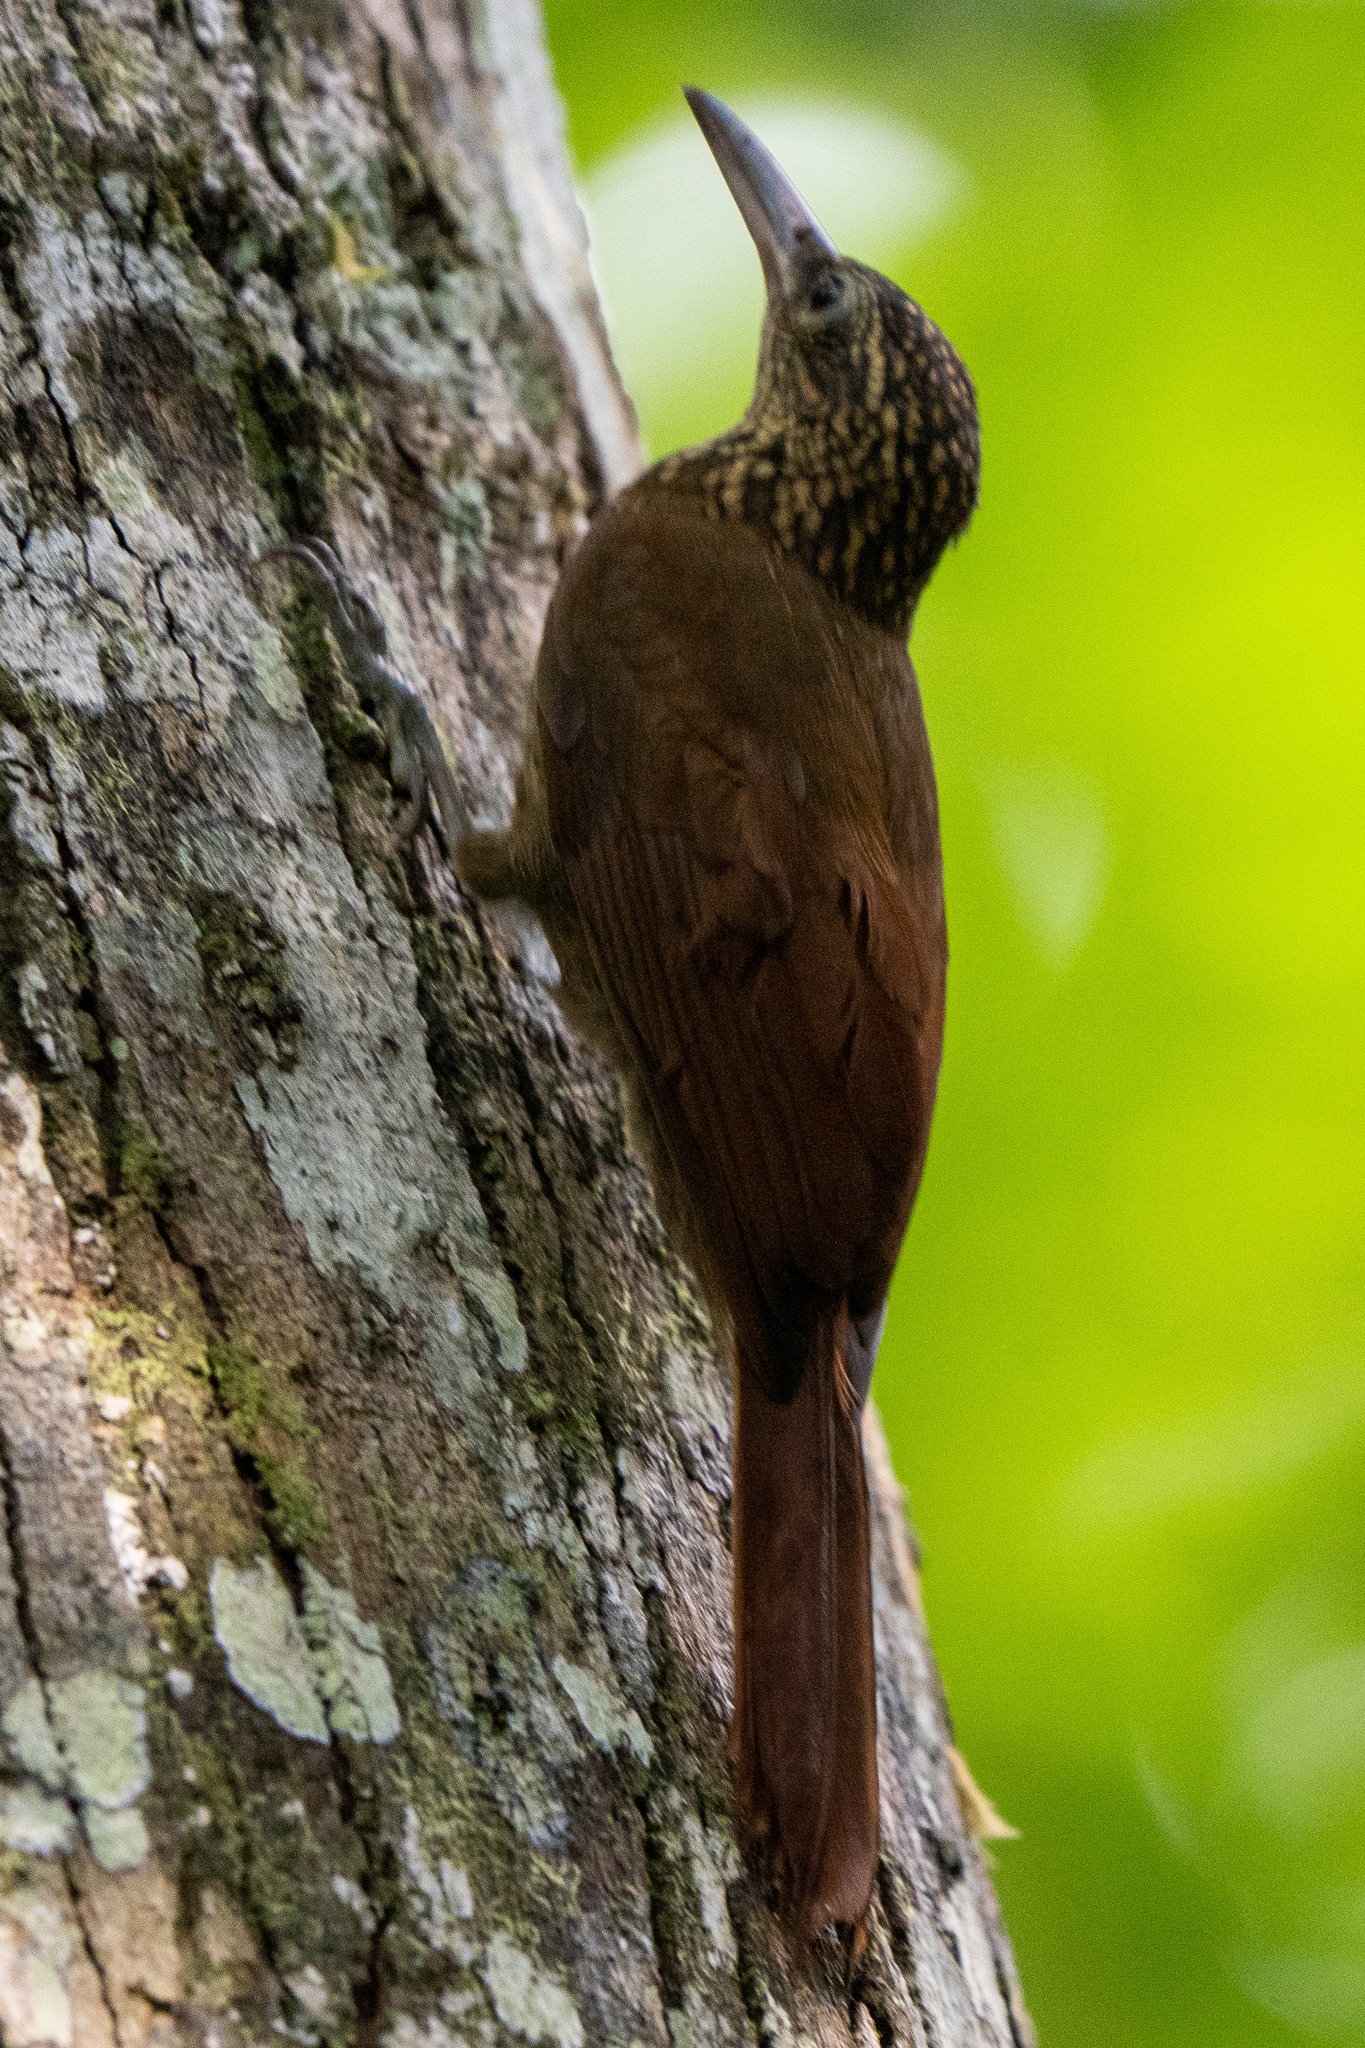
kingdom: Animalia
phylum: Chordata
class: Aves
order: Passeriformes
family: Furnariidae
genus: Xiphorhynchus
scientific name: Xiphorhynchus susurrans
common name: Cocoa woodcreeper
